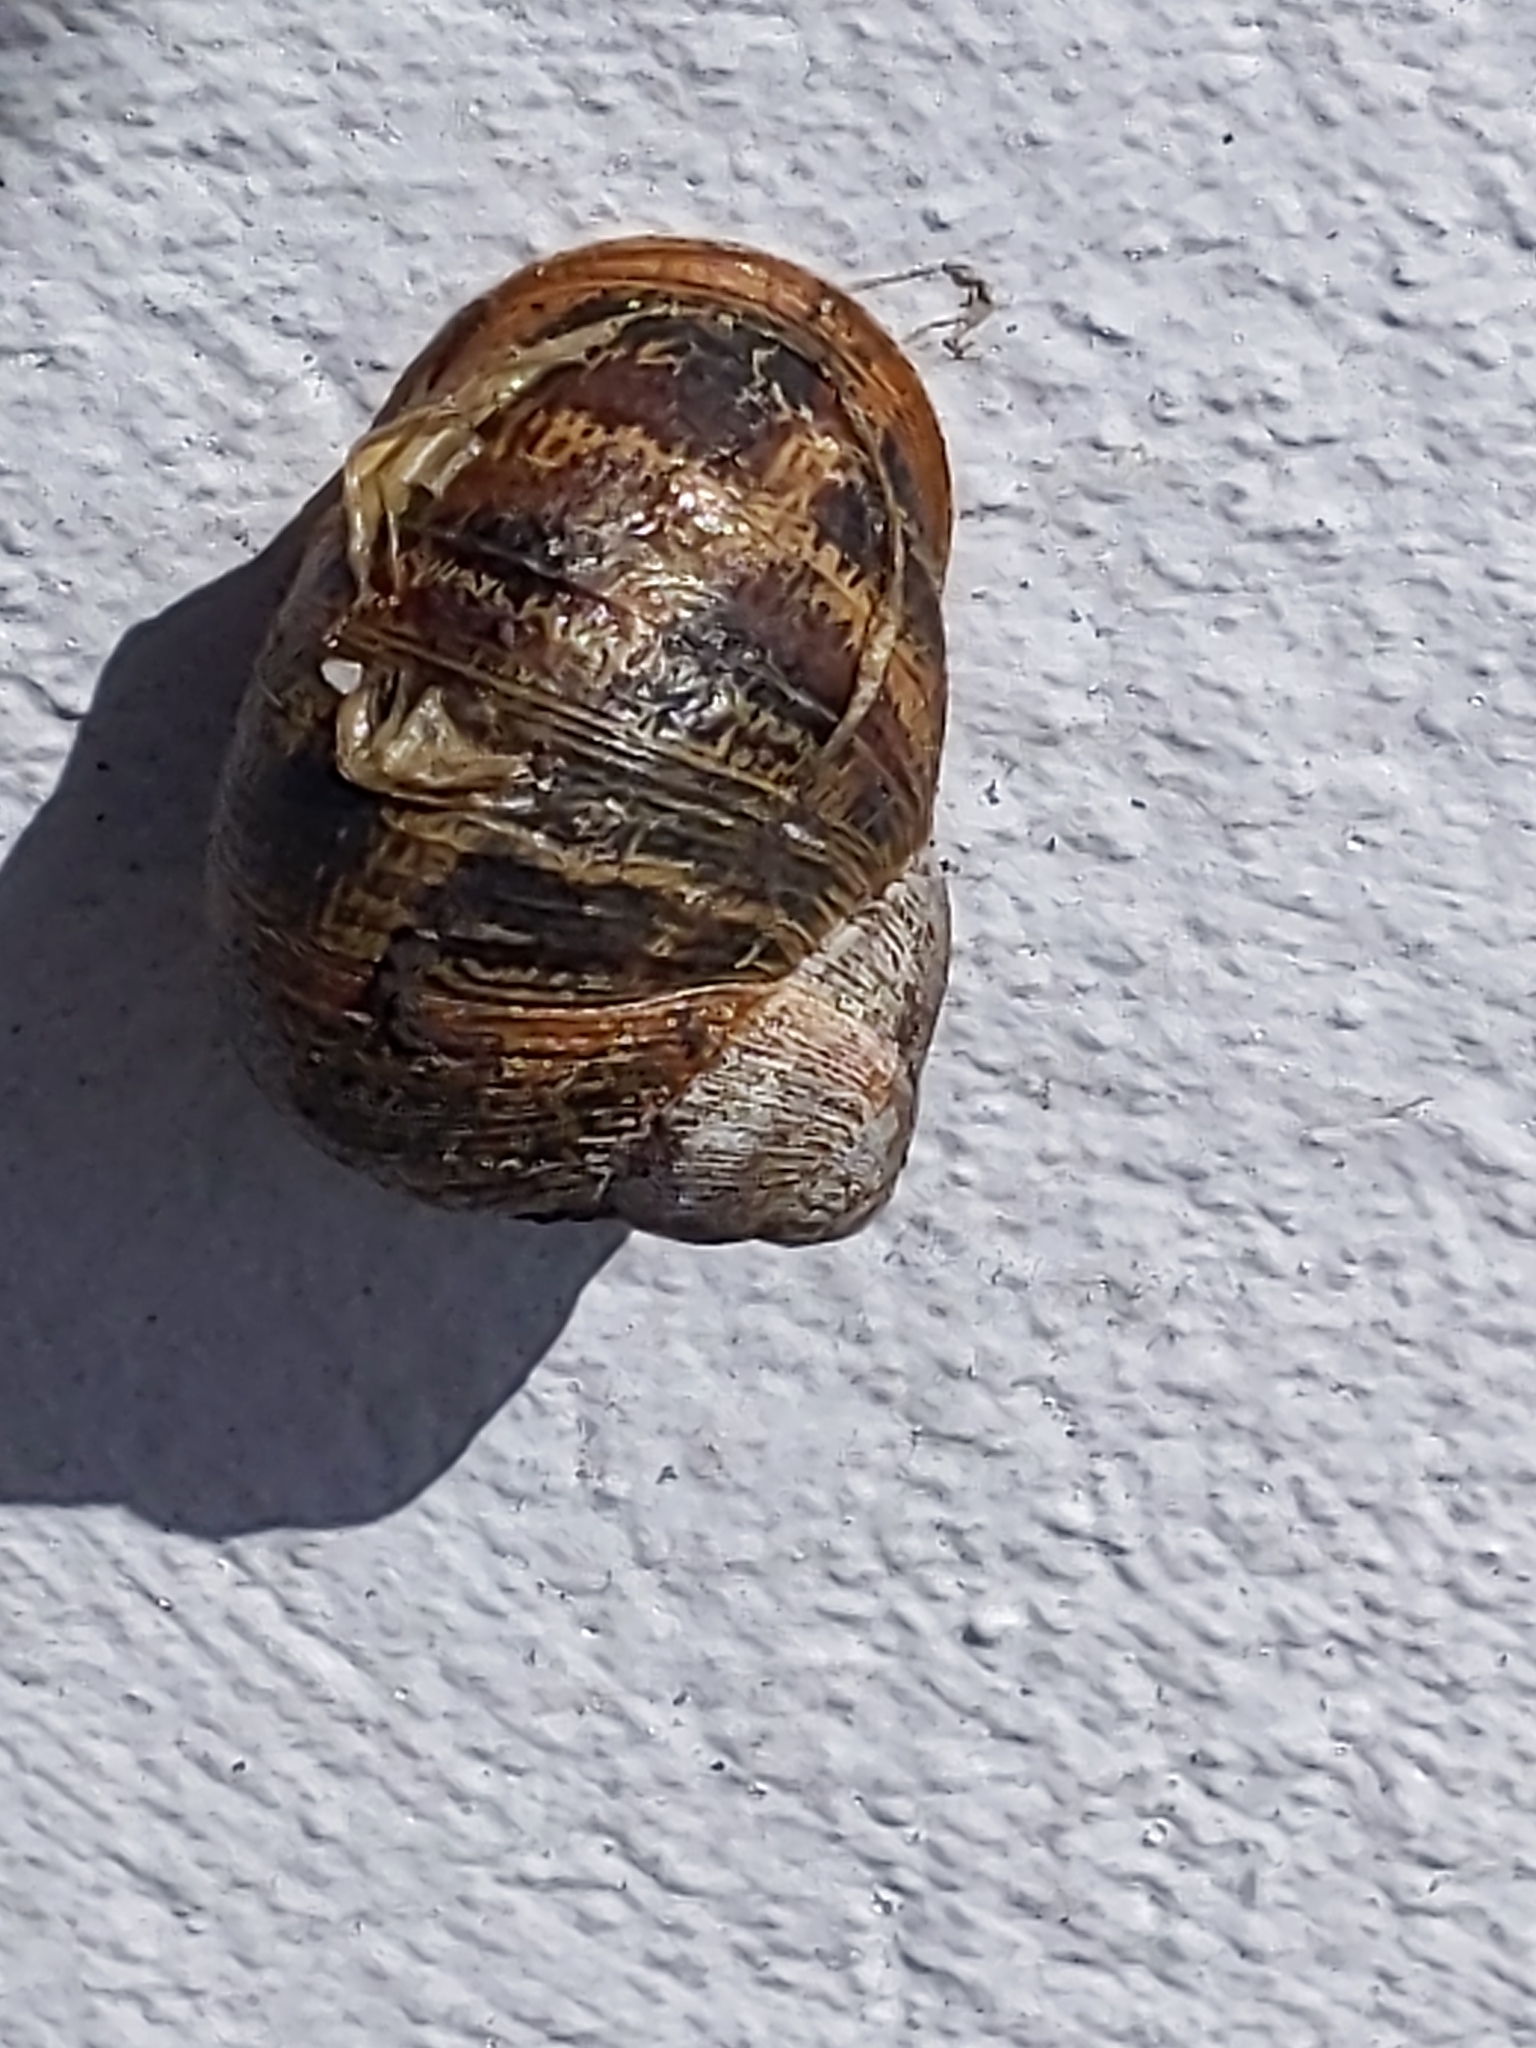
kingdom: Animalia
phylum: Mollusca
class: Gastropoda
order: Stylommatophora
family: Helicidae
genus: Cornu
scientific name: Cornu aspersum
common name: Brown garden snail
